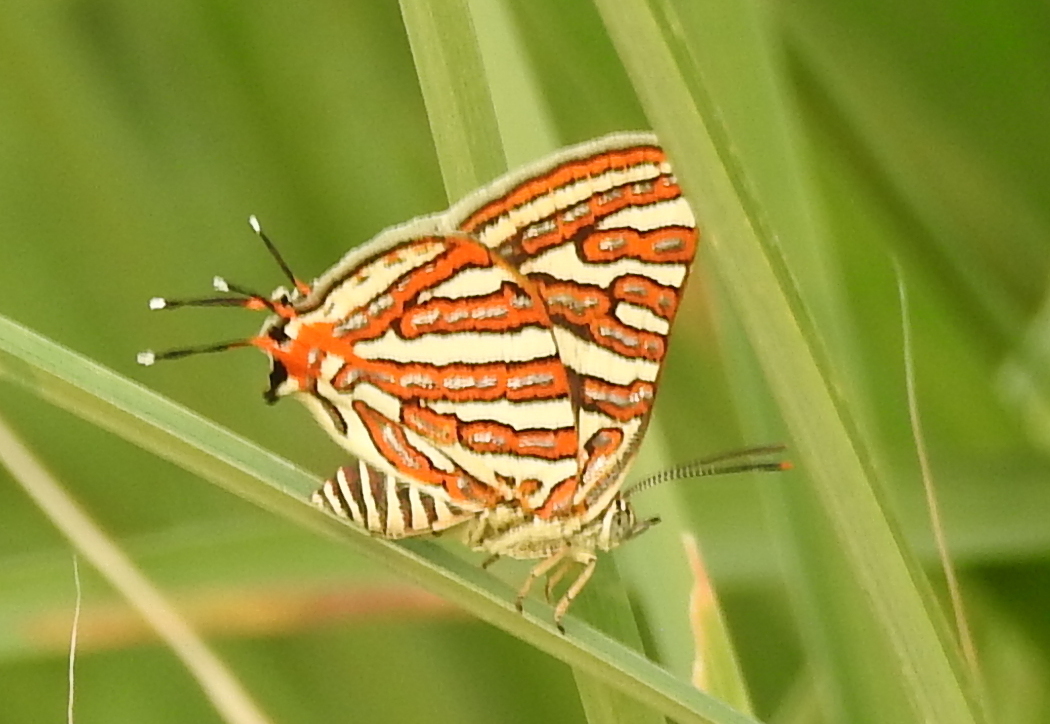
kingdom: Animalia
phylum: Arthropoda
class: Insecta
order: Lepidoptera
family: Lycaenidae
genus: Cigaritis
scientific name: Cigaritis vulcanus
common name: Common silverline
